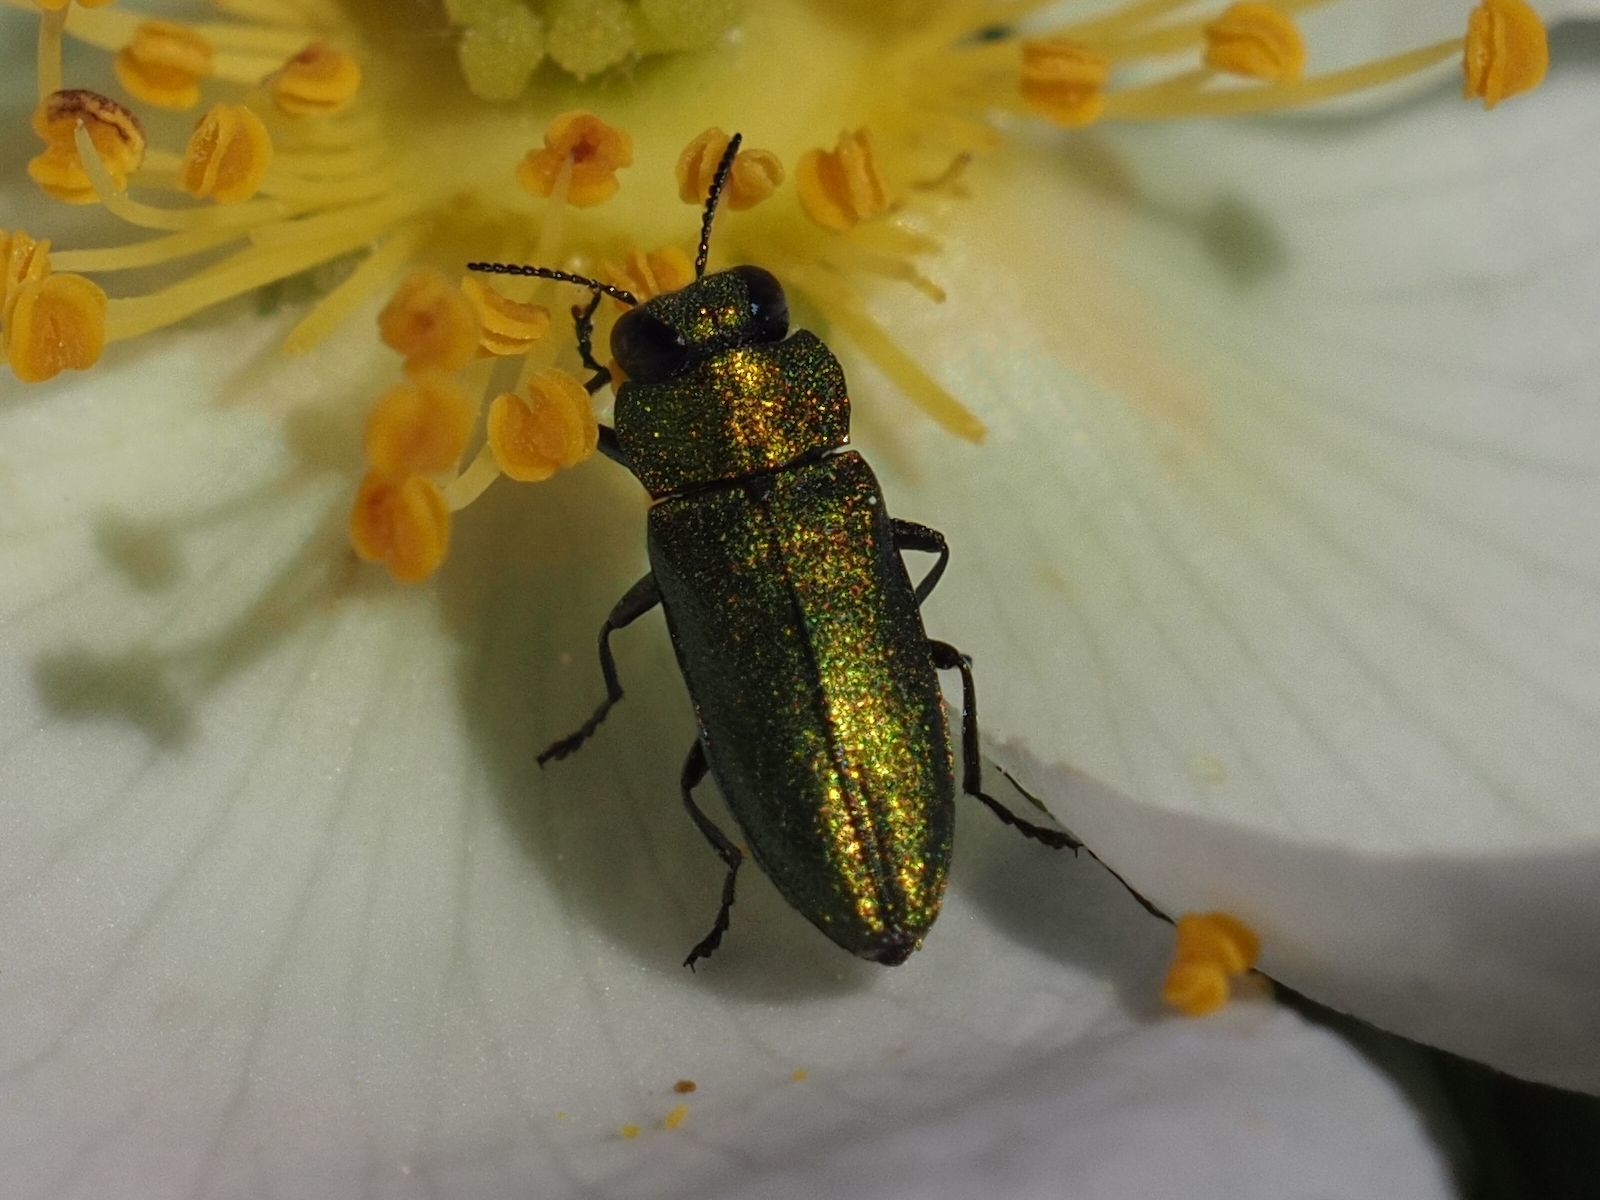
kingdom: Animalia
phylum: Arthropoda
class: Insecta
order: Coleoptera
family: Buprestidae
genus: Anthaxia
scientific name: Anthaxia nitidula
